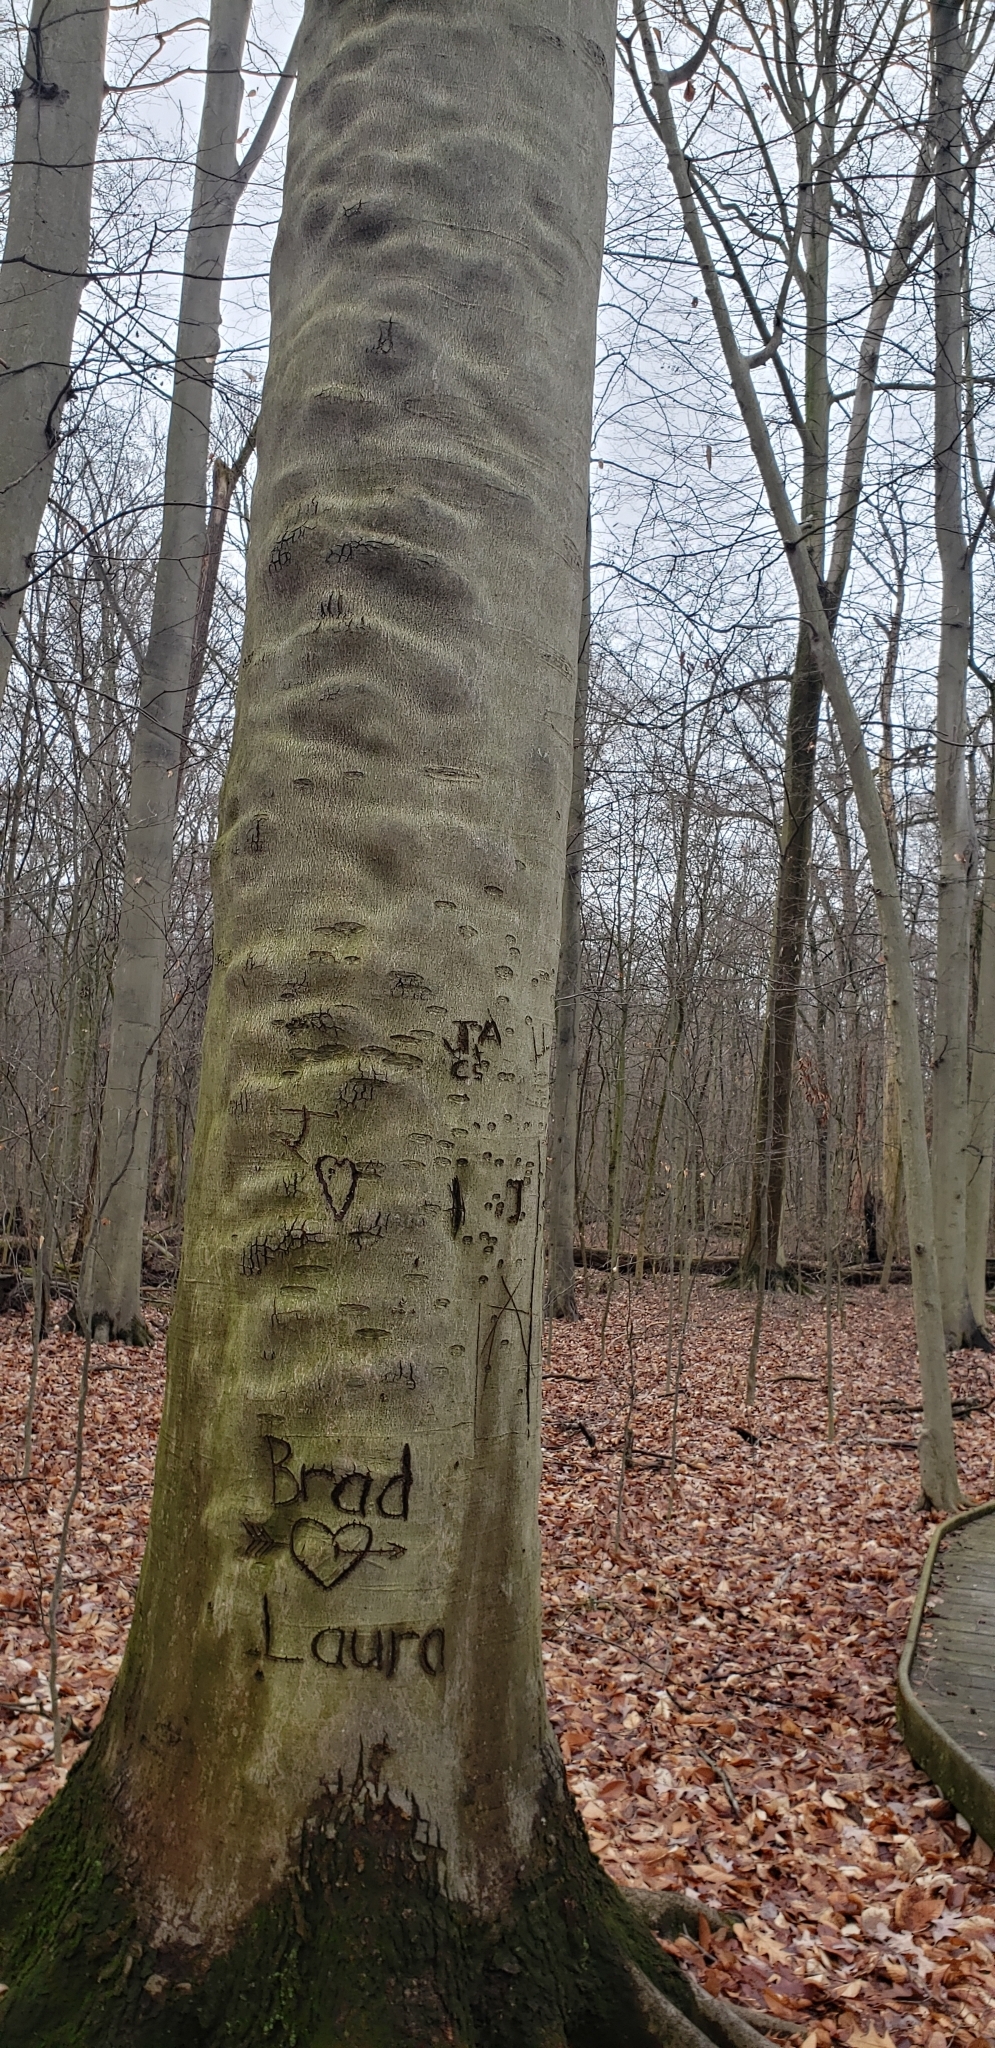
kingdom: Plantae
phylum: Tracheophyta
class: Magnoliopsida
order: Fagales
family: Fagaceae
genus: Fagus
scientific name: Fagus grandifolia
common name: American beech
